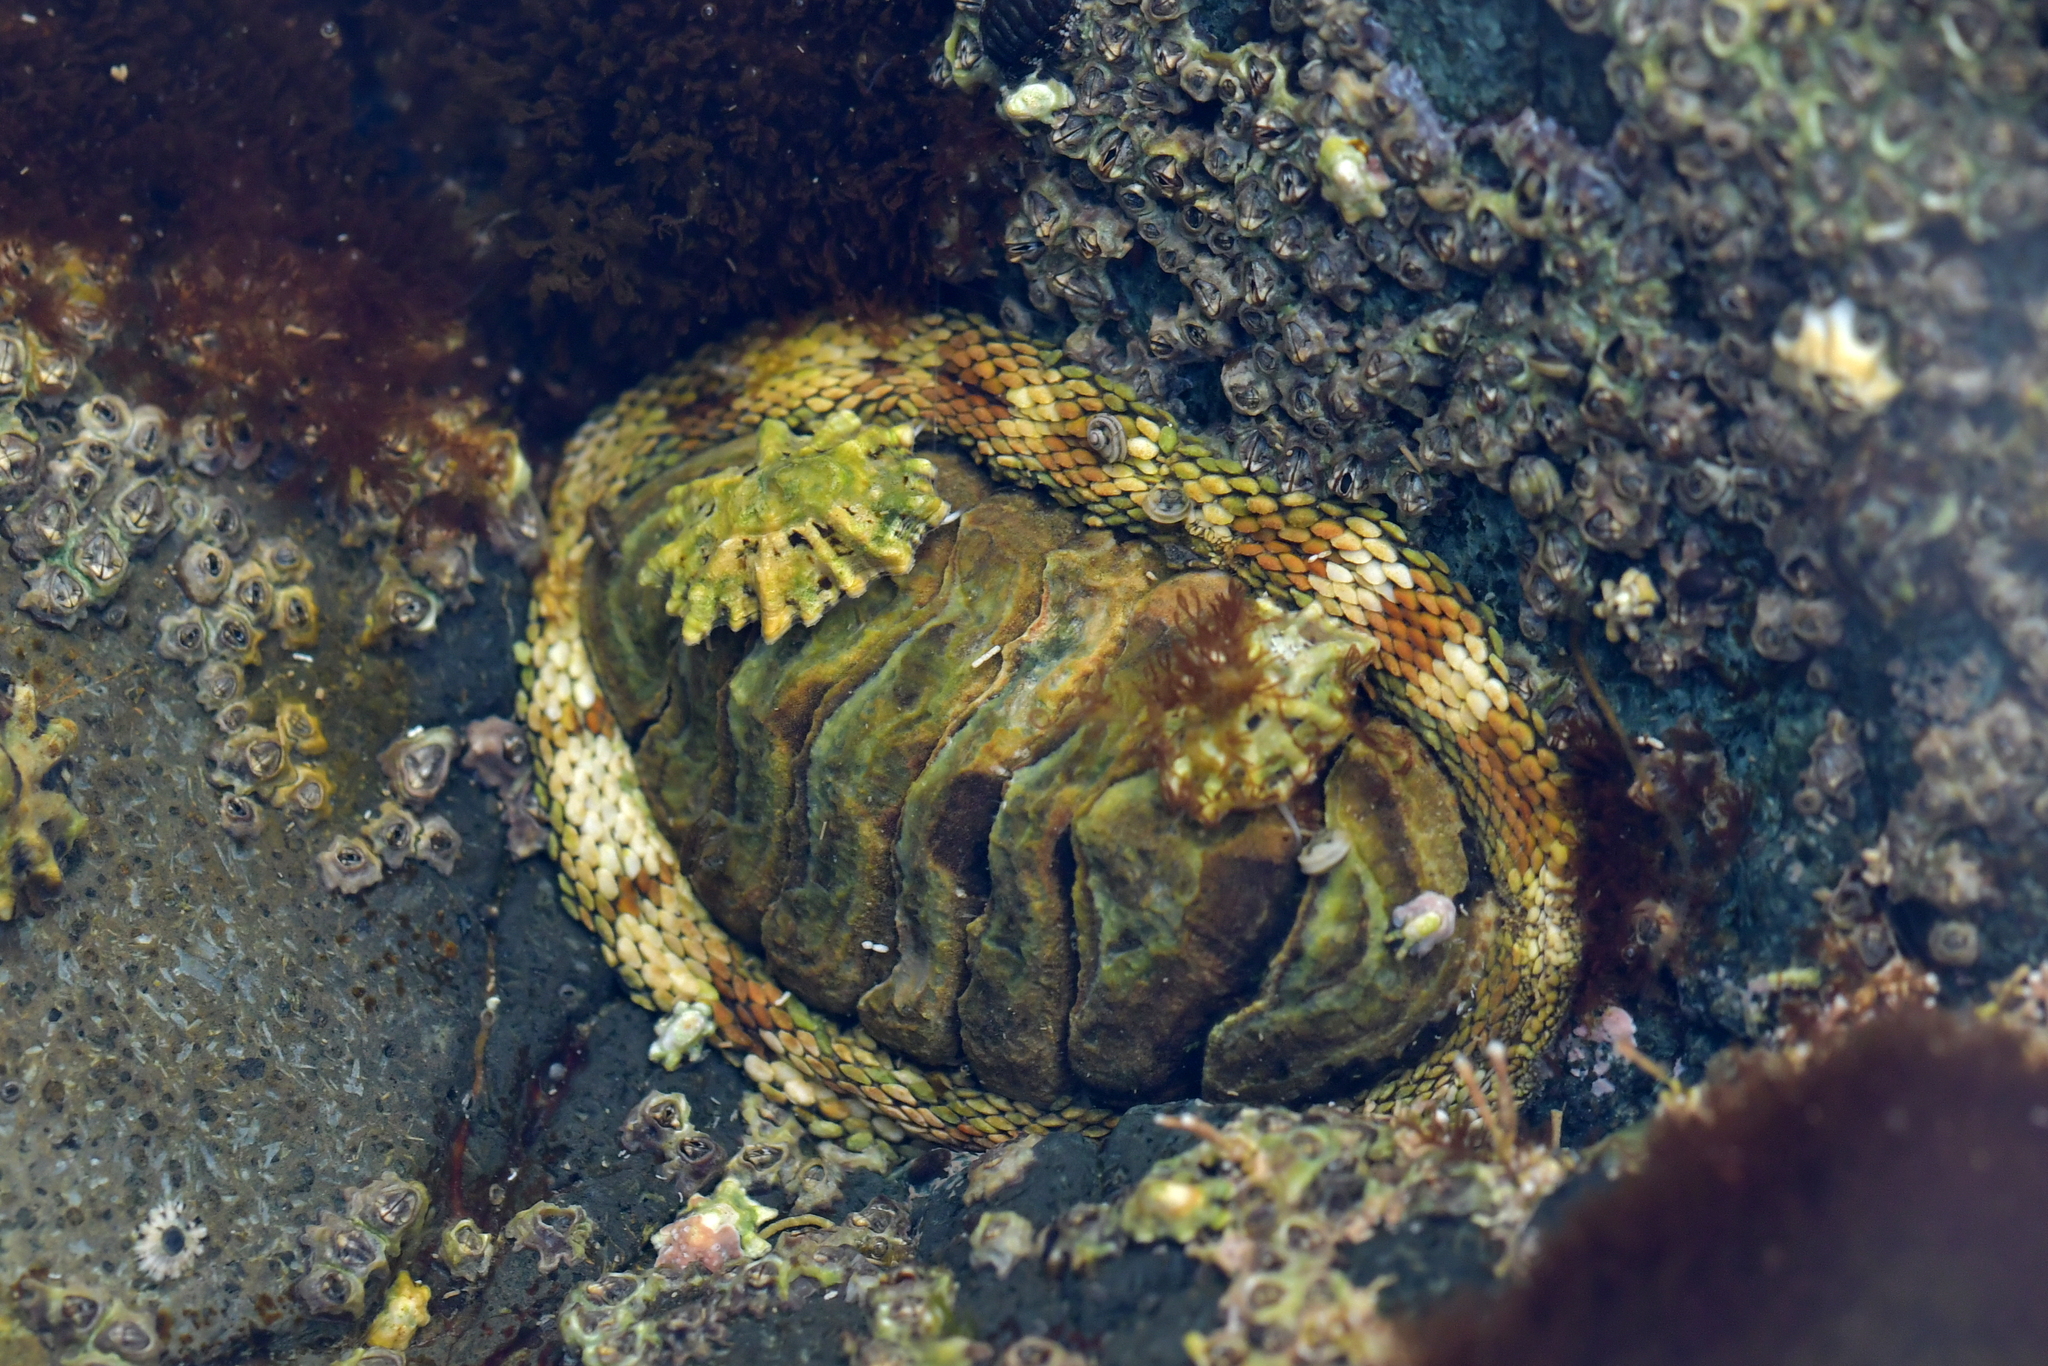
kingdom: Animalia
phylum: Mollusca
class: Polyplacophora
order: Chitonida
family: Chitonidae
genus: Sypharochiton
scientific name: Sypharochiton pelliserpentis
